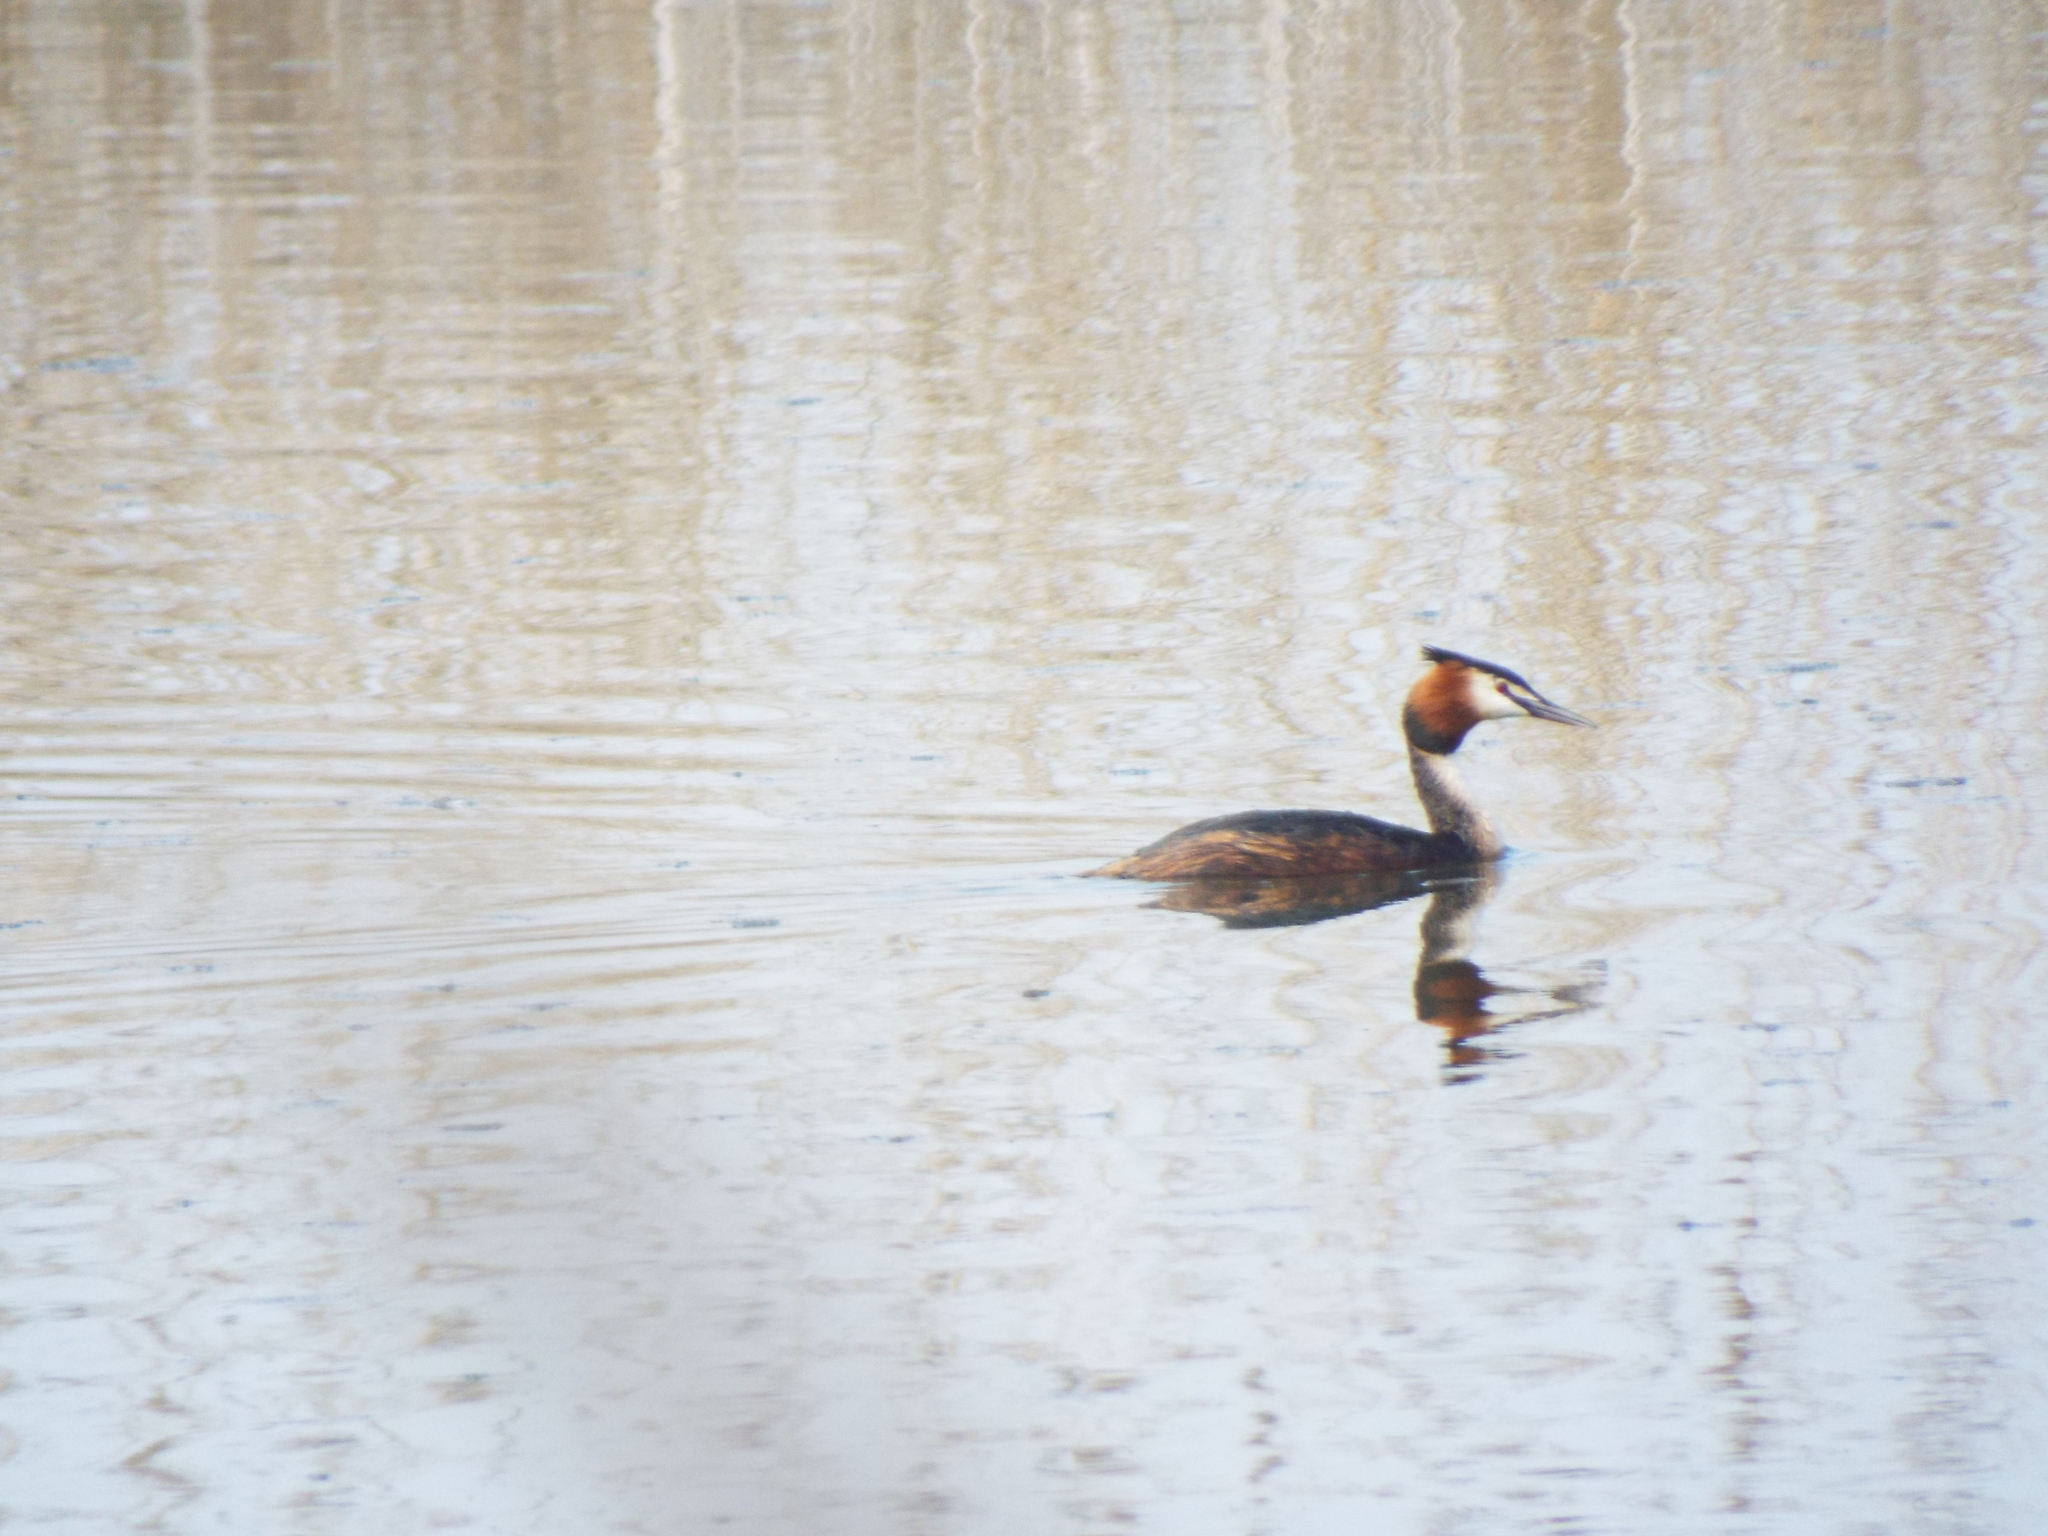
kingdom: Animalia
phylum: Chordata
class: Aves
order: Podicipediformes
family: Podicipedidae
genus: Podiceps
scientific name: Podiceps cristatus
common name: Great crested grebe
